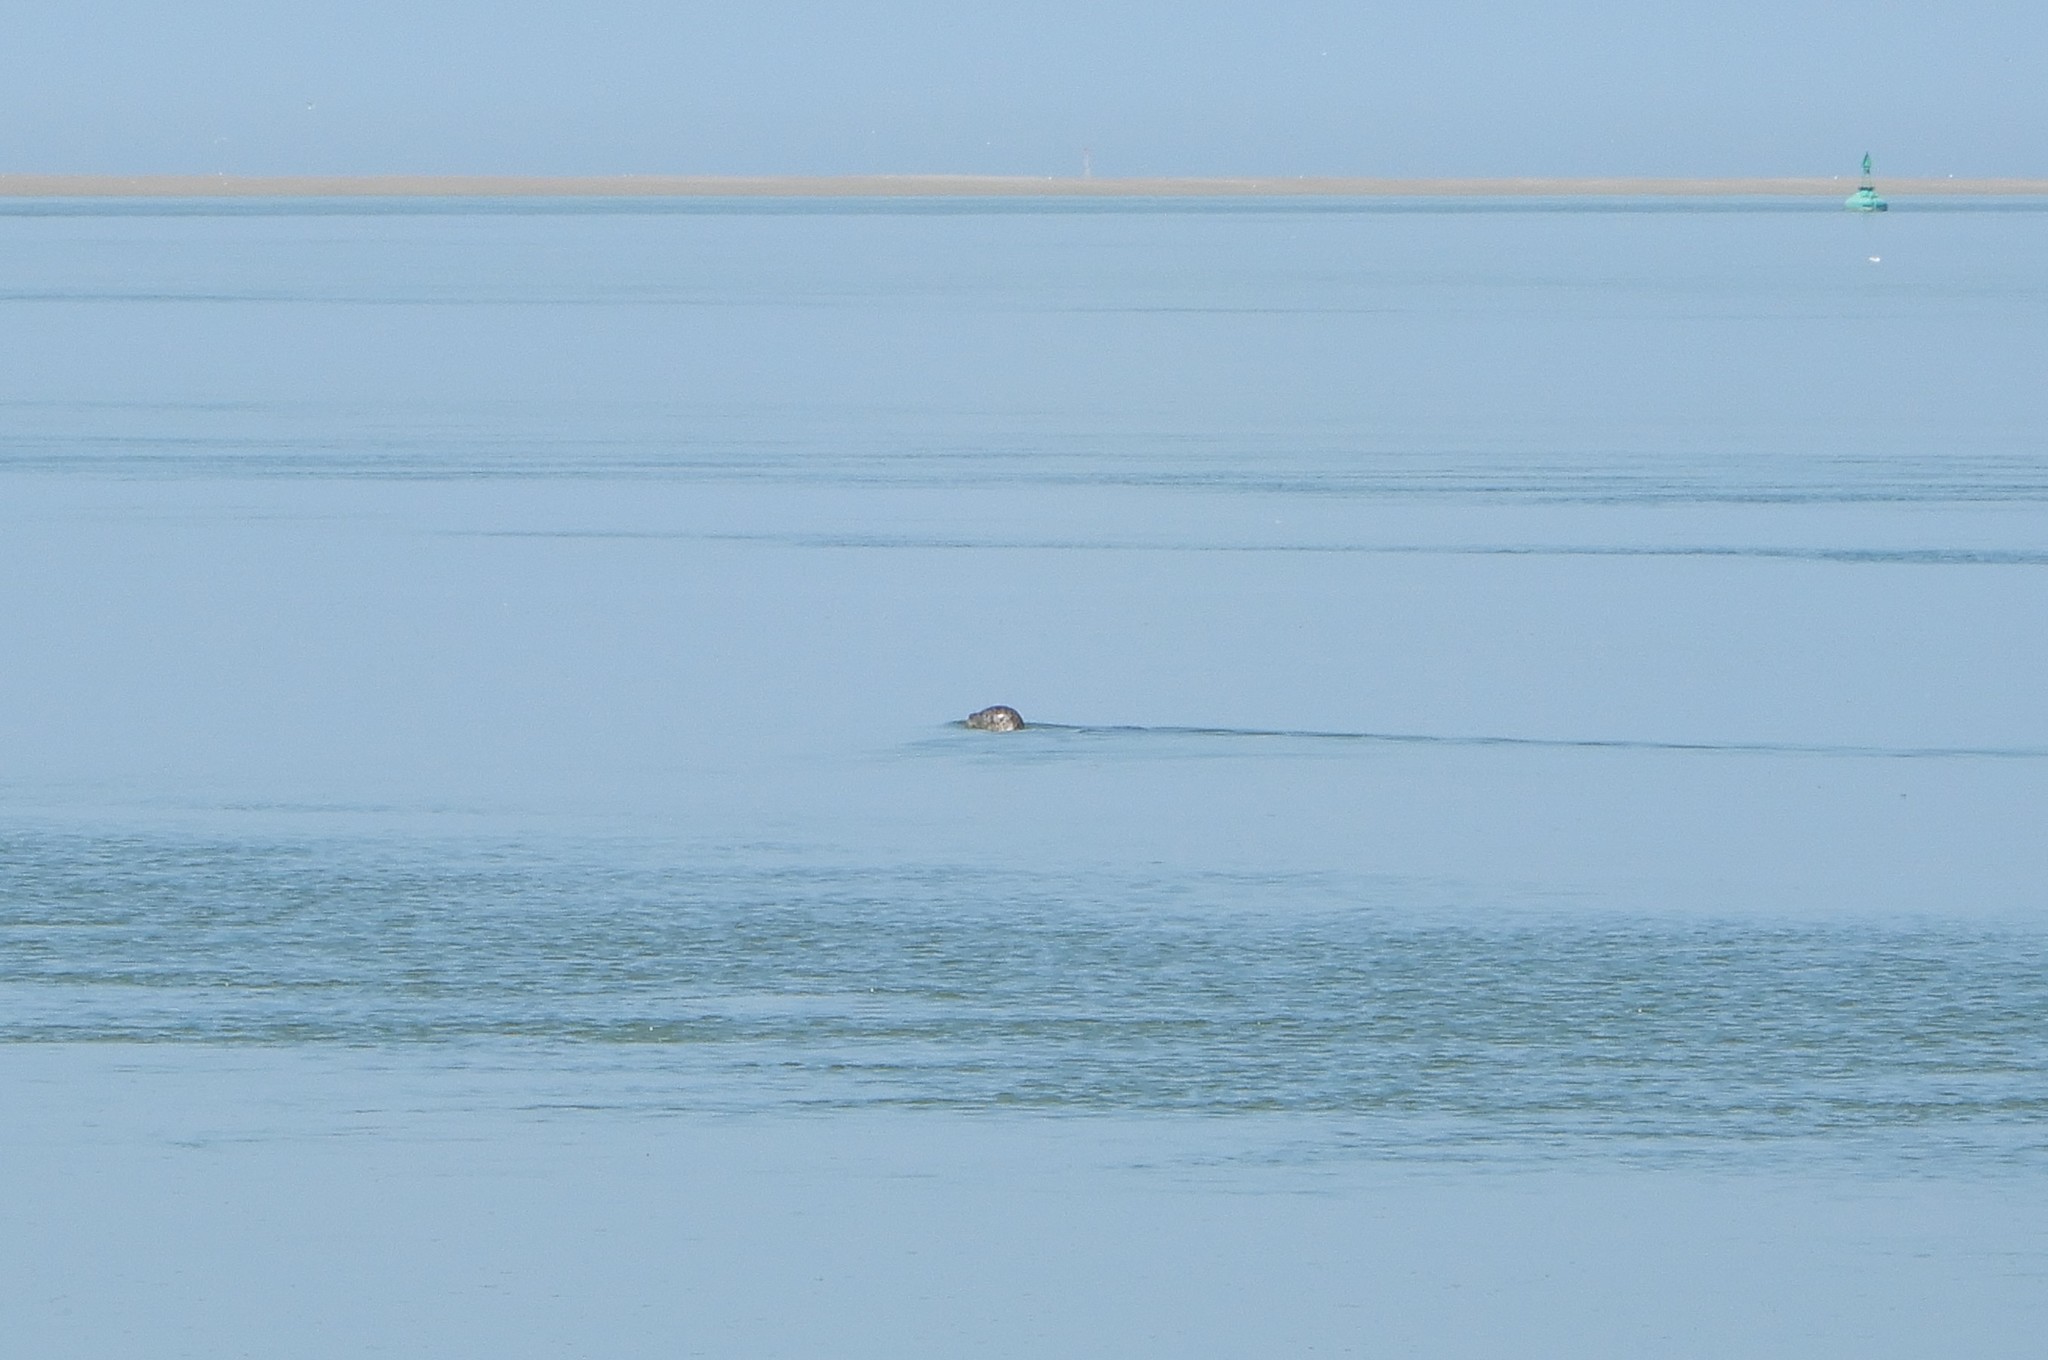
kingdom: Animalia
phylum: Chordata
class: Mammalia
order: Carnivora
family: Phocidae
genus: Phoca
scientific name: Phoca vitulina
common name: Harbor seal
